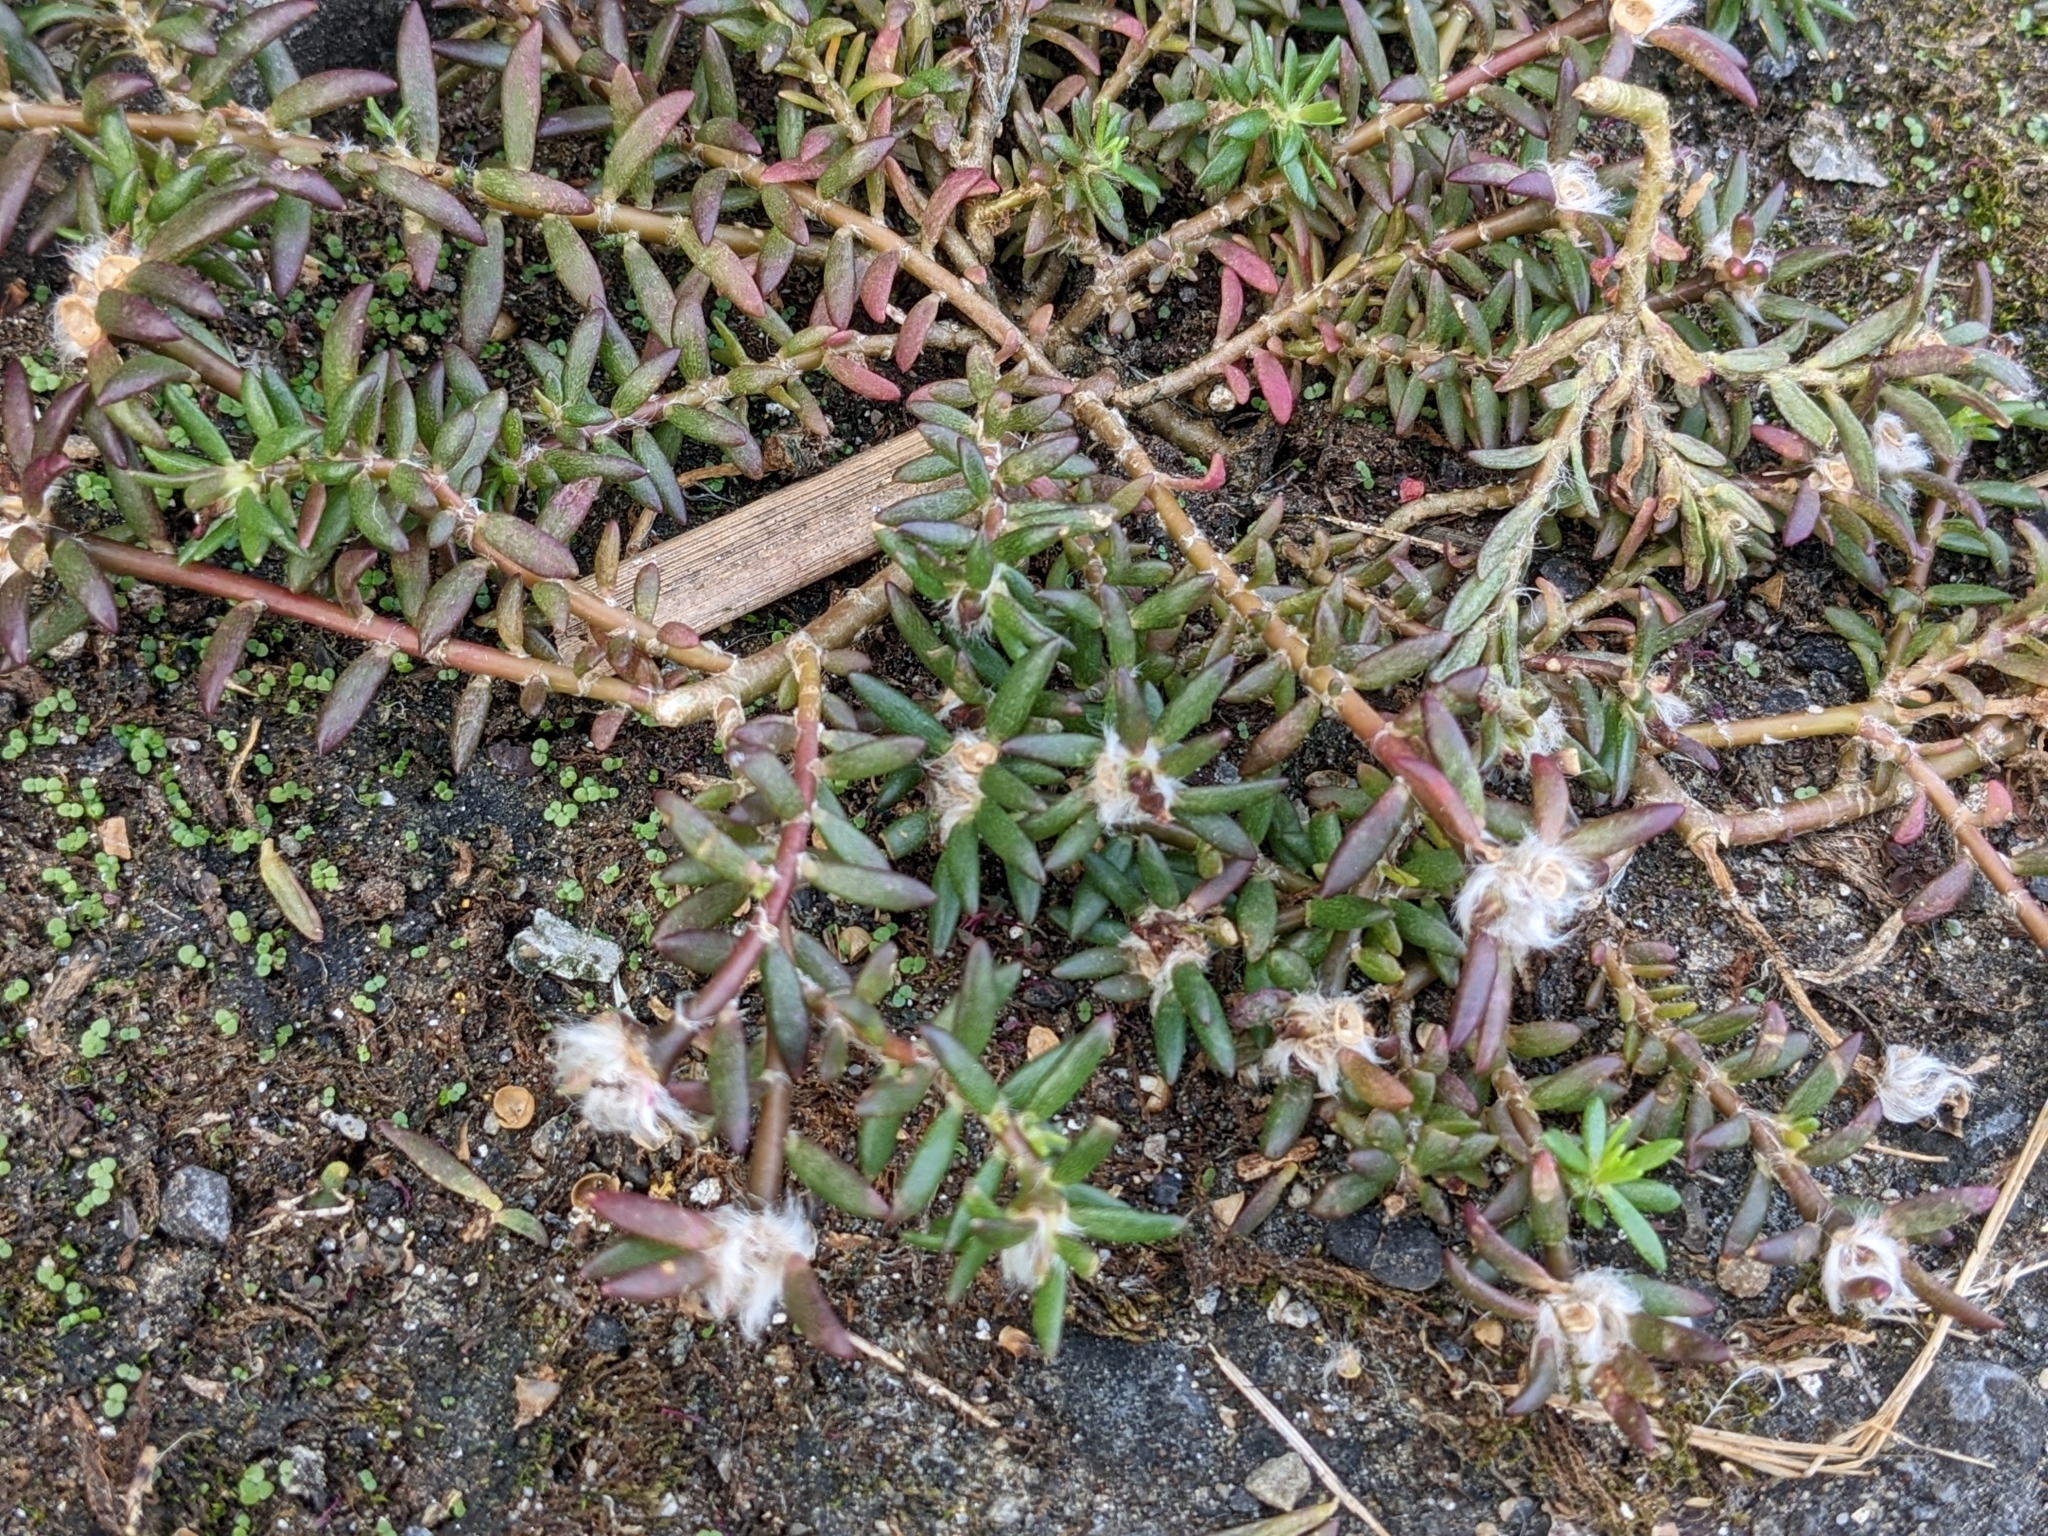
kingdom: Plantae
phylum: Tracheophyta
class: Magnoliopsida
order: Caryophyllales
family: Portulacaceae
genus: Portulaca
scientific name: Portulaca pilosa
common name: Kiss me quick
